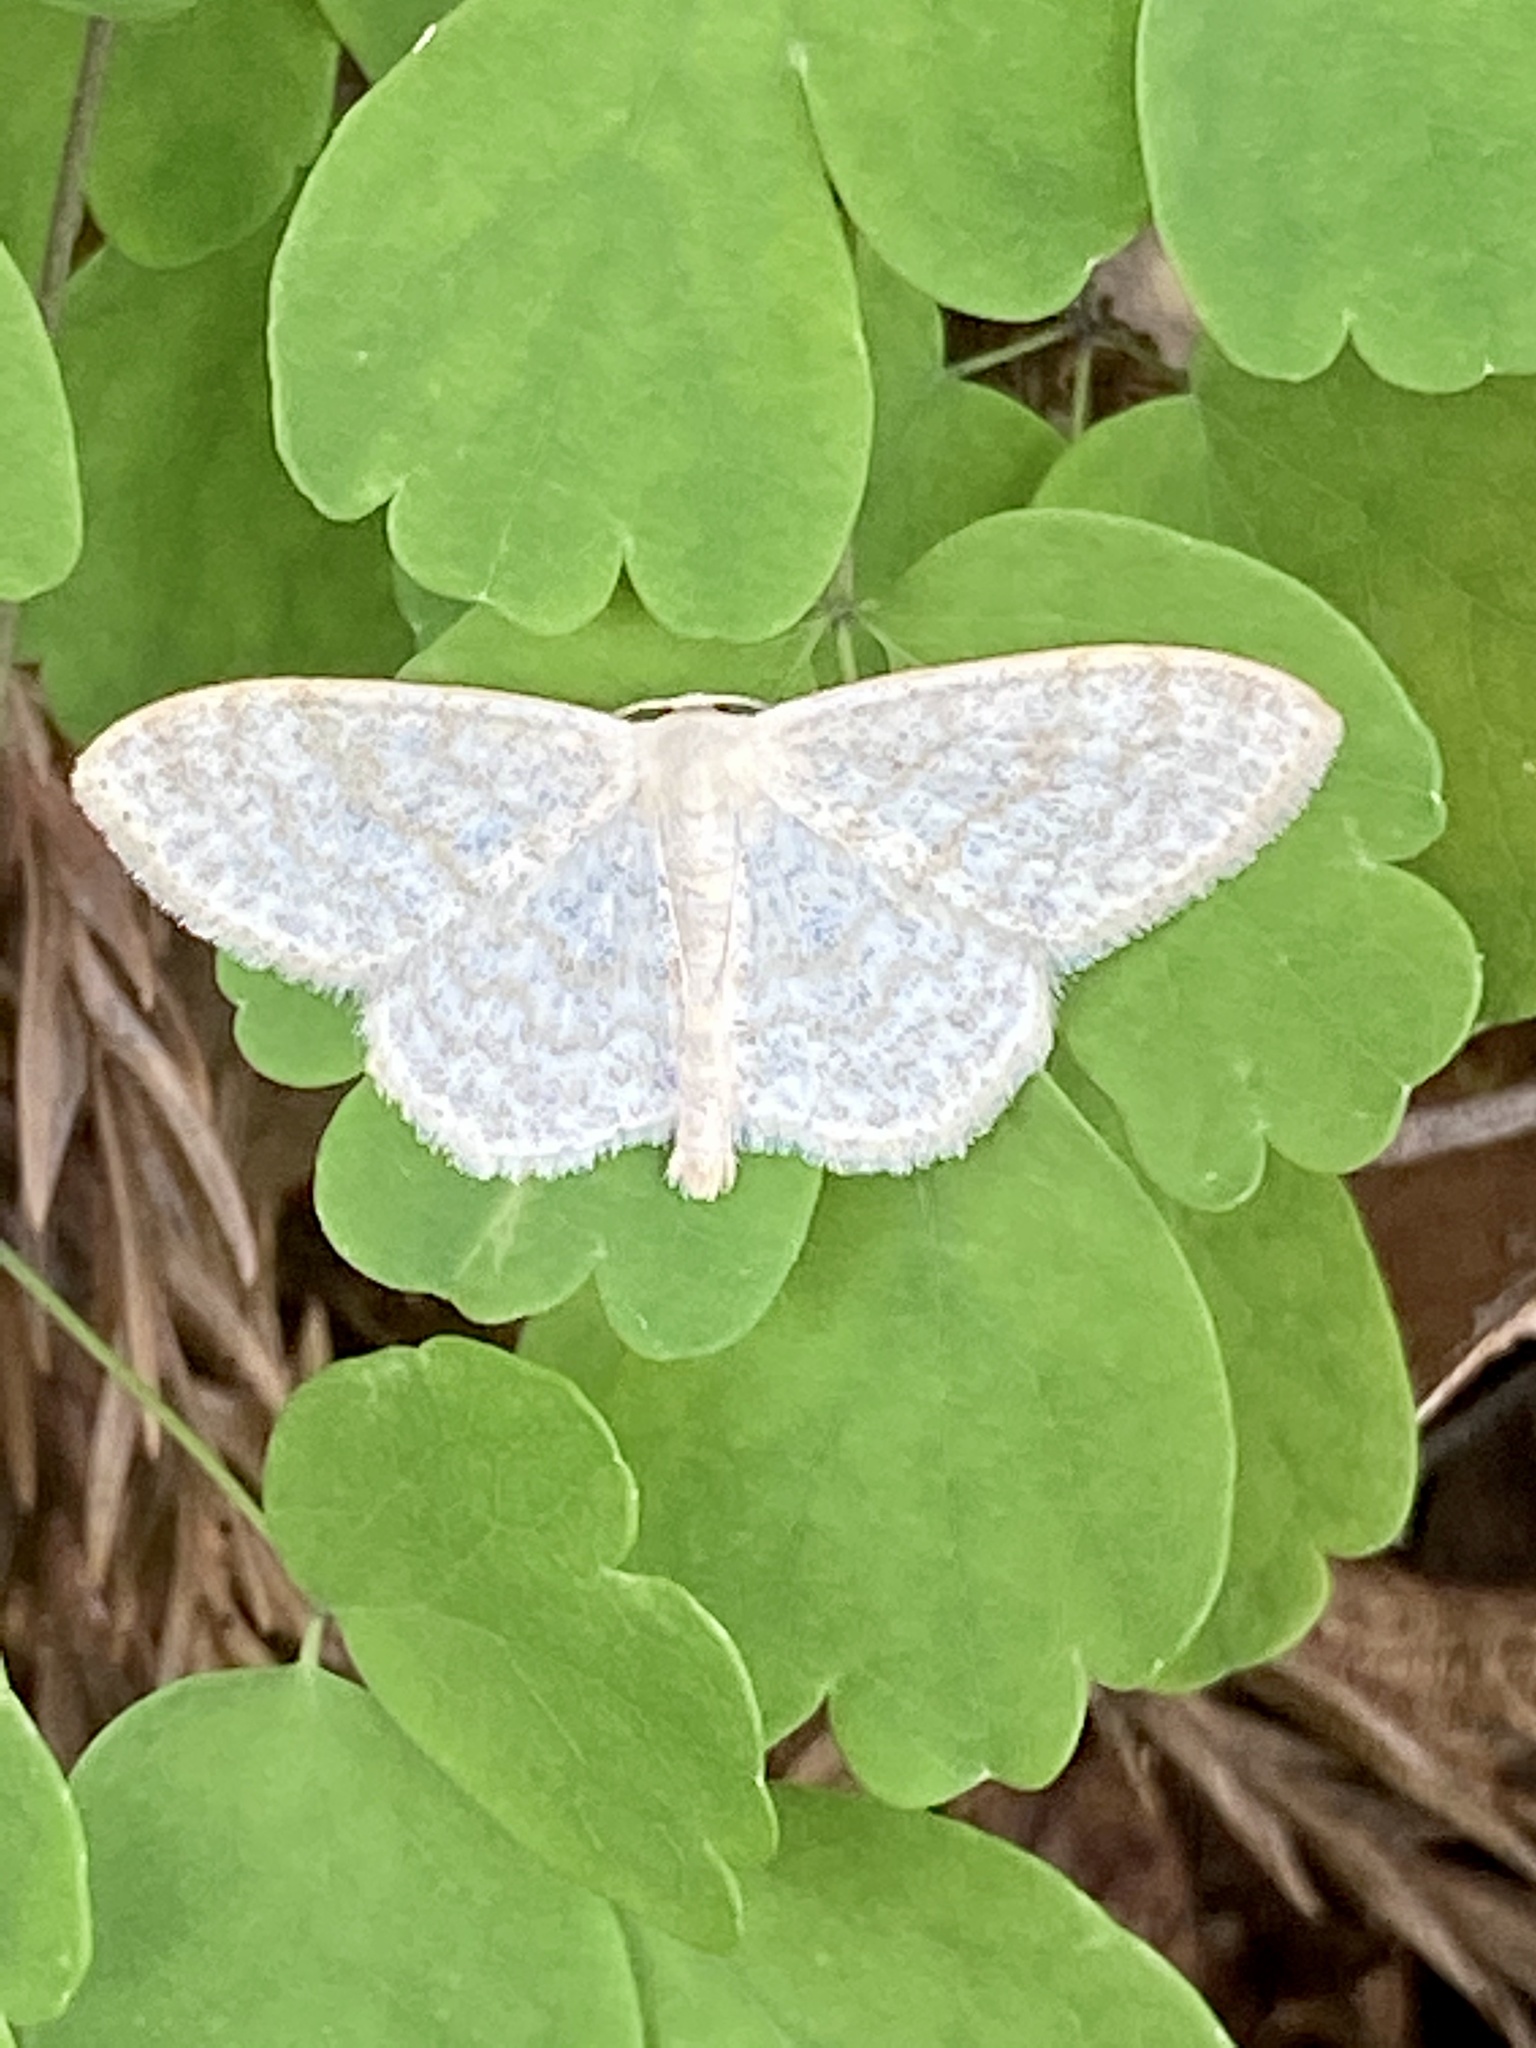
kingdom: Animalia
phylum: Arthropoda
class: Insecta
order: Lepidoptera
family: Geometridae
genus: Scopula
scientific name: Scopula floslactata
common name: Cream wave
